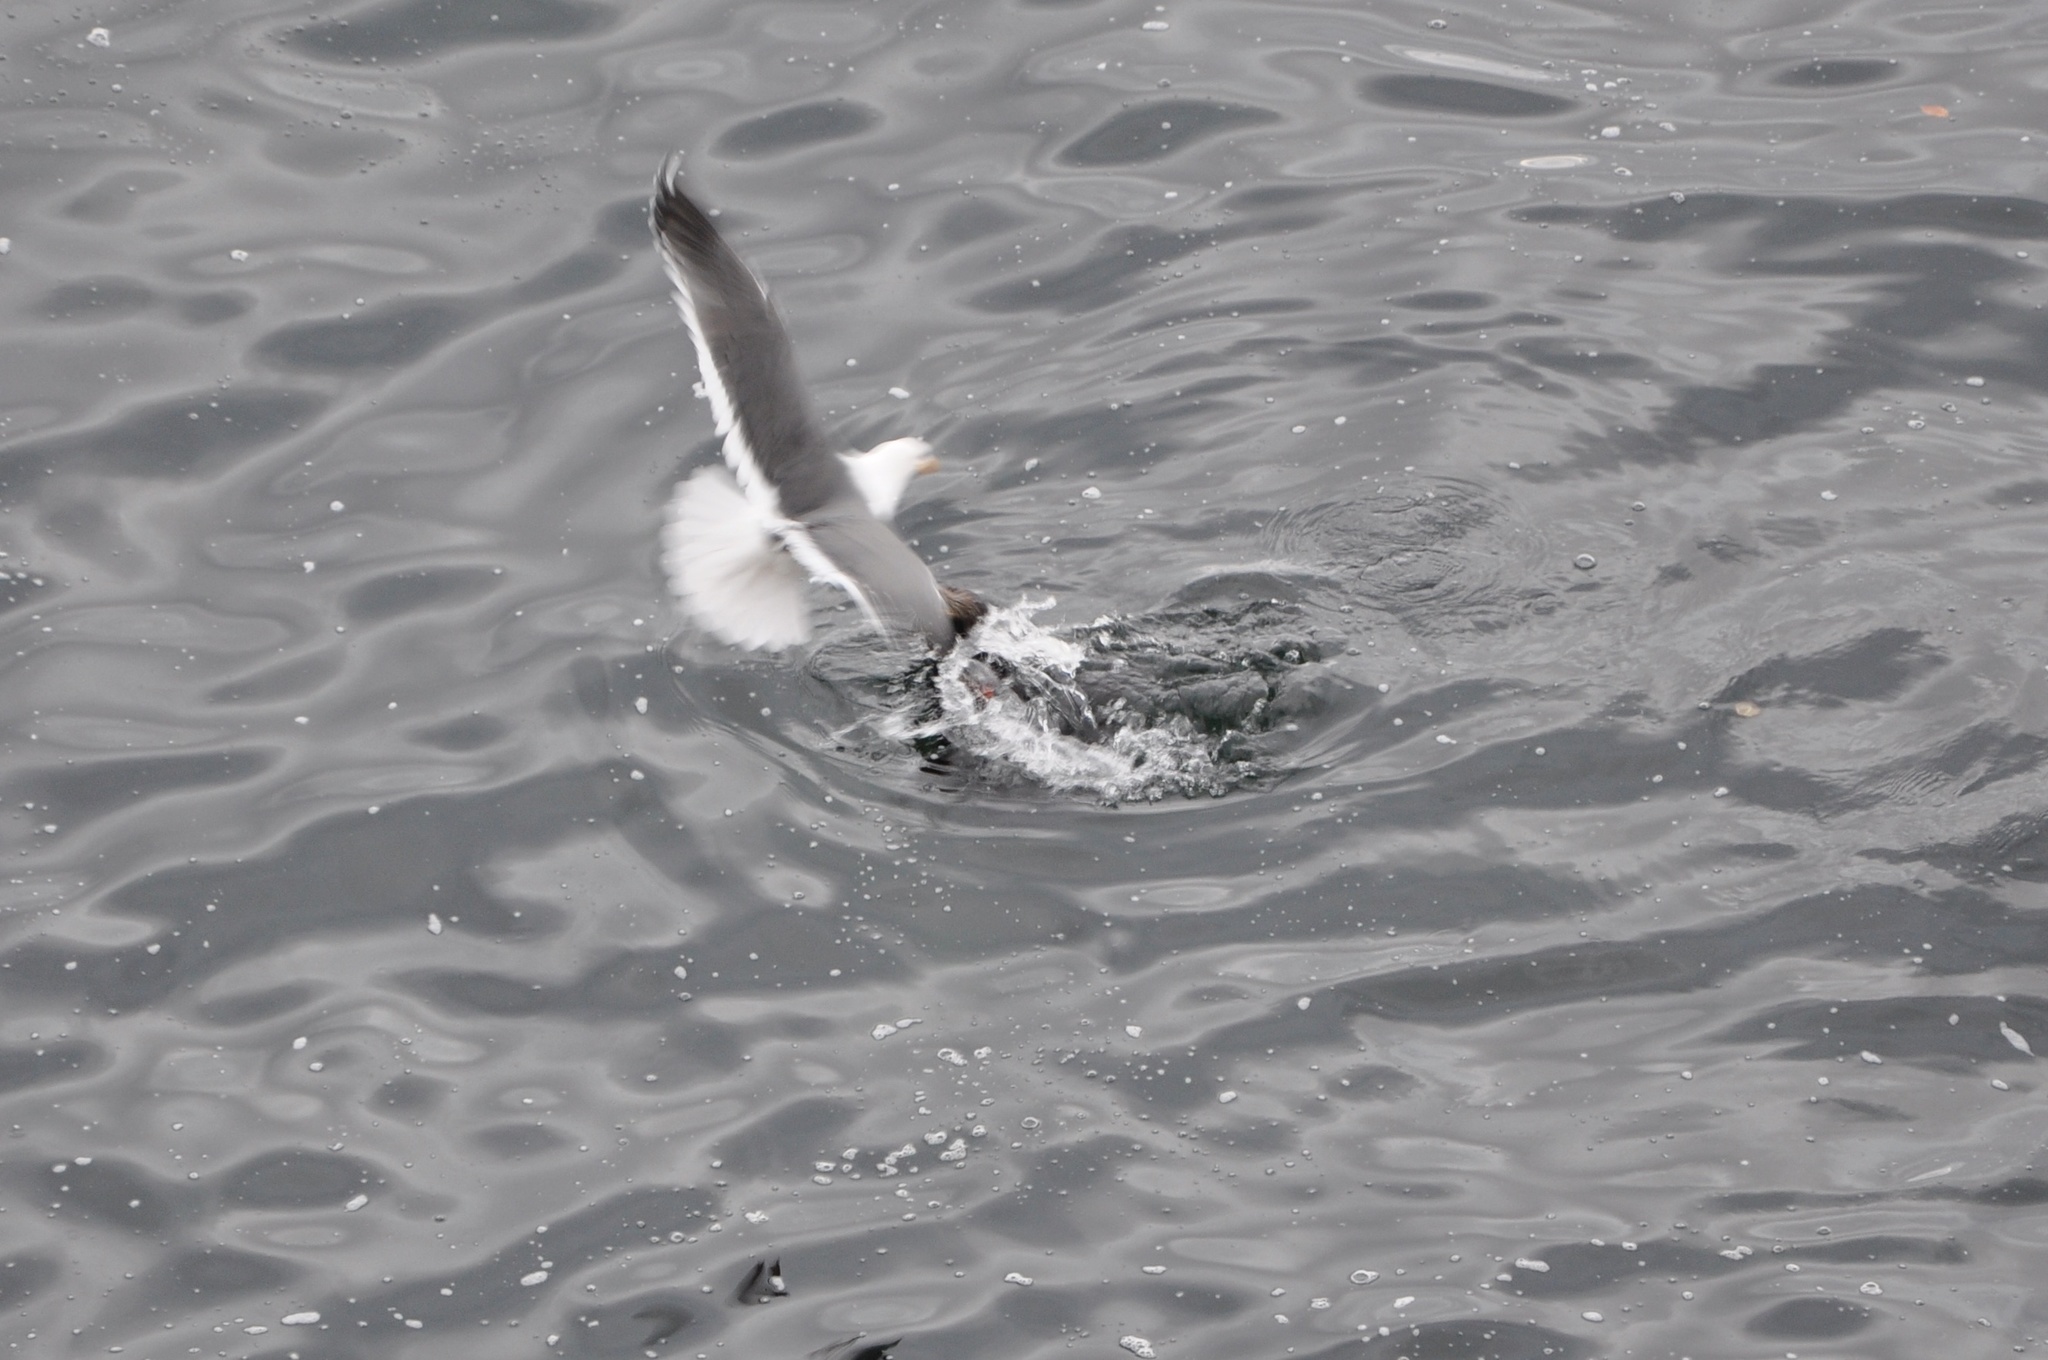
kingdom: Animalia
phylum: Chordata
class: Aves
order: Charadriiformes
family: Laridae
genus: Larus
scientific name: Larus occidentalis
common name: Western gull
